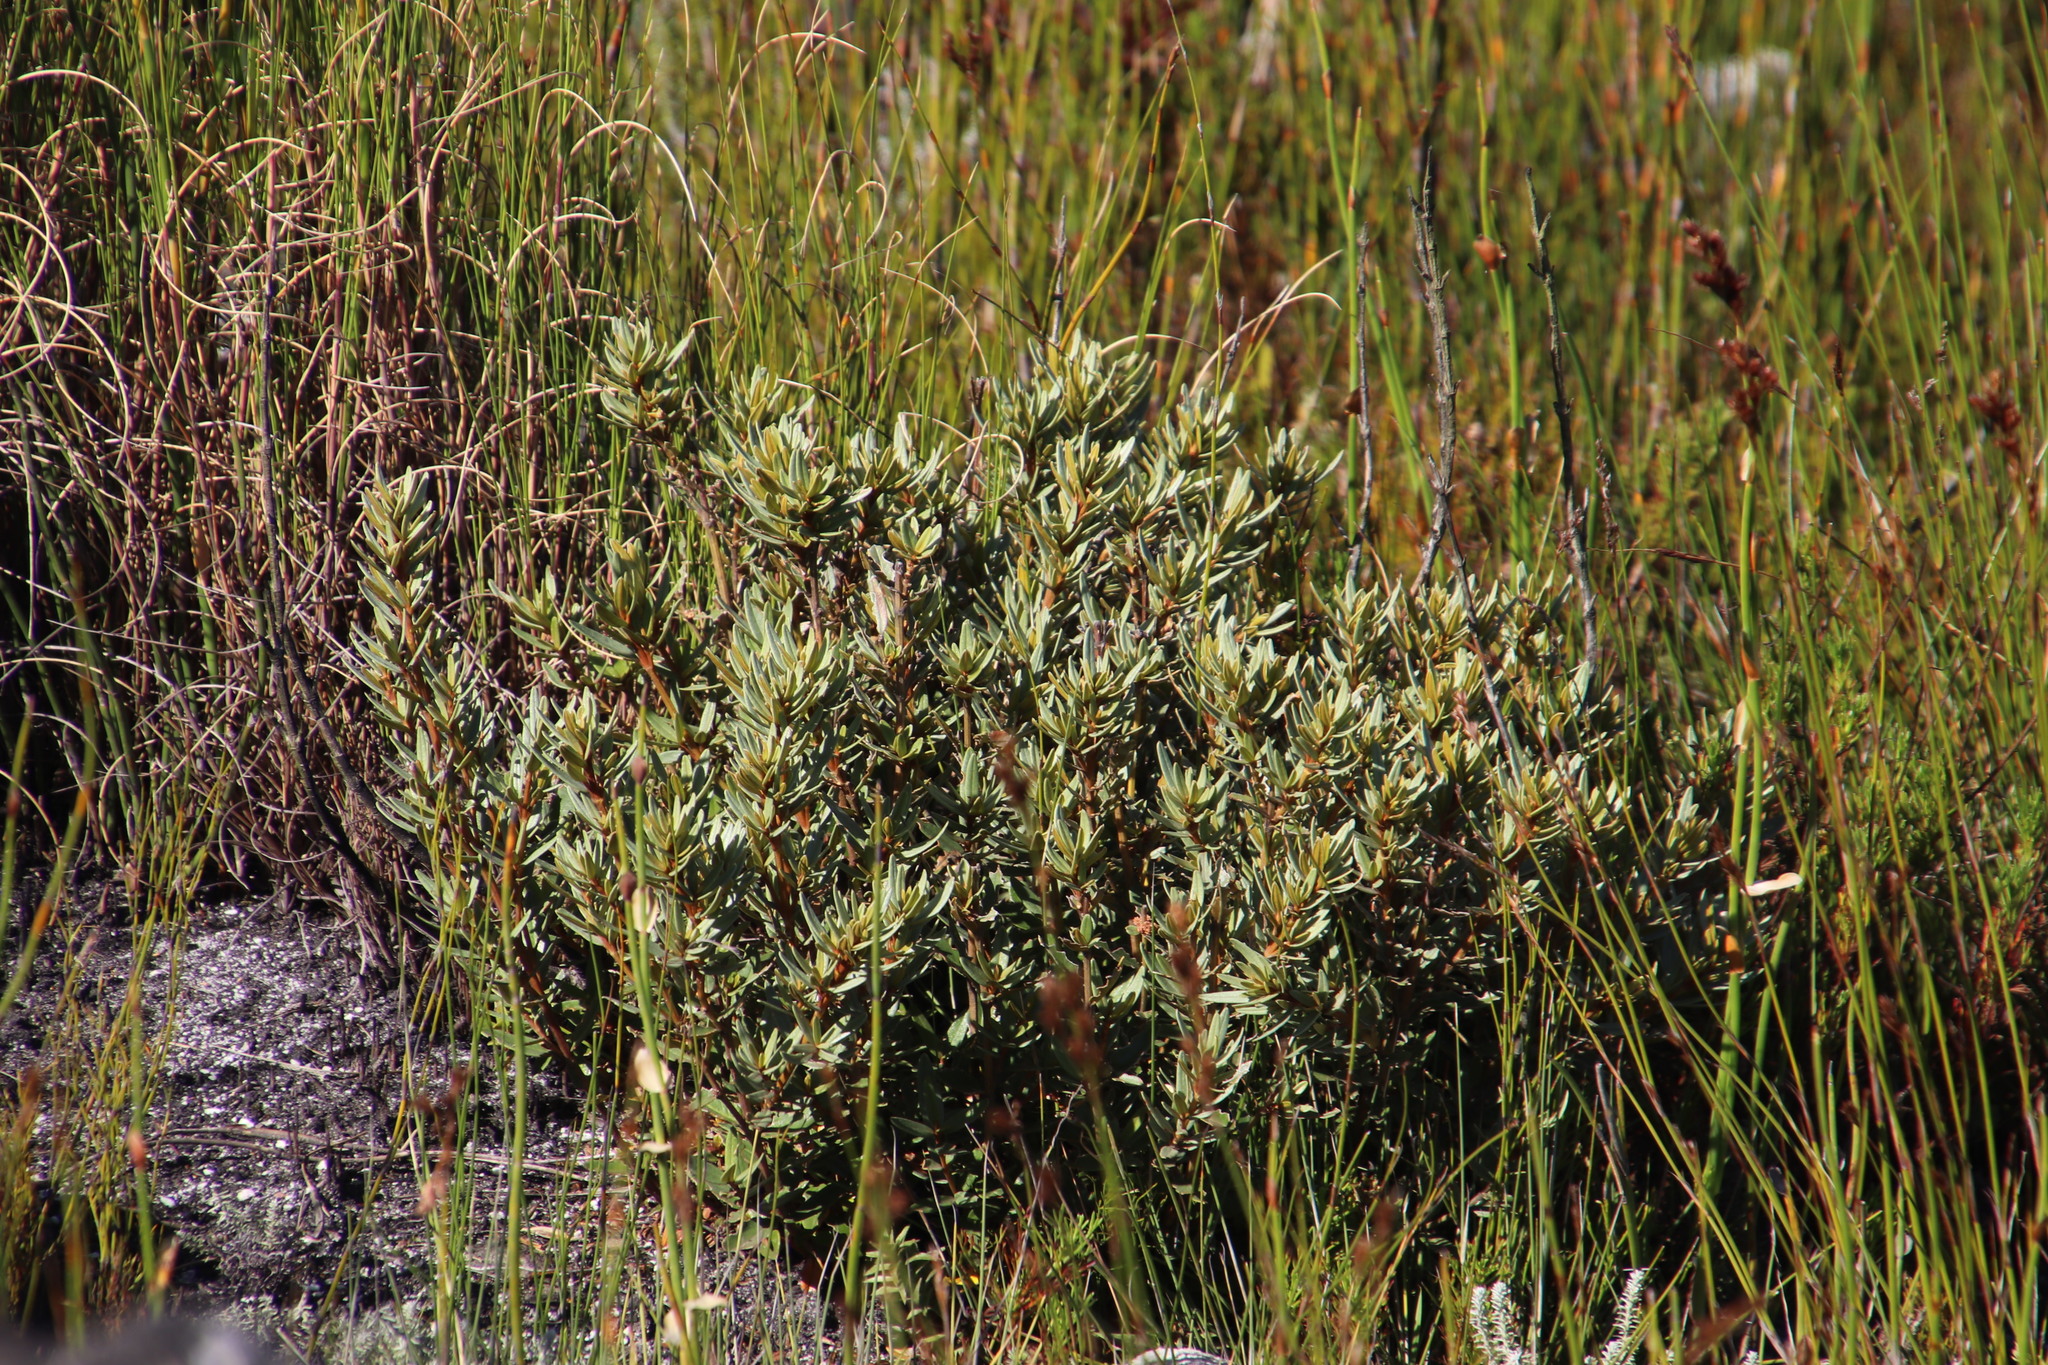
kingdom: Plantae
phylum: Tracheophyta
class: Magnoliopsida
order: Cornales
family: Grubbiaceae
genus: Grubbia
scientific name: Grubbia tomentosa
